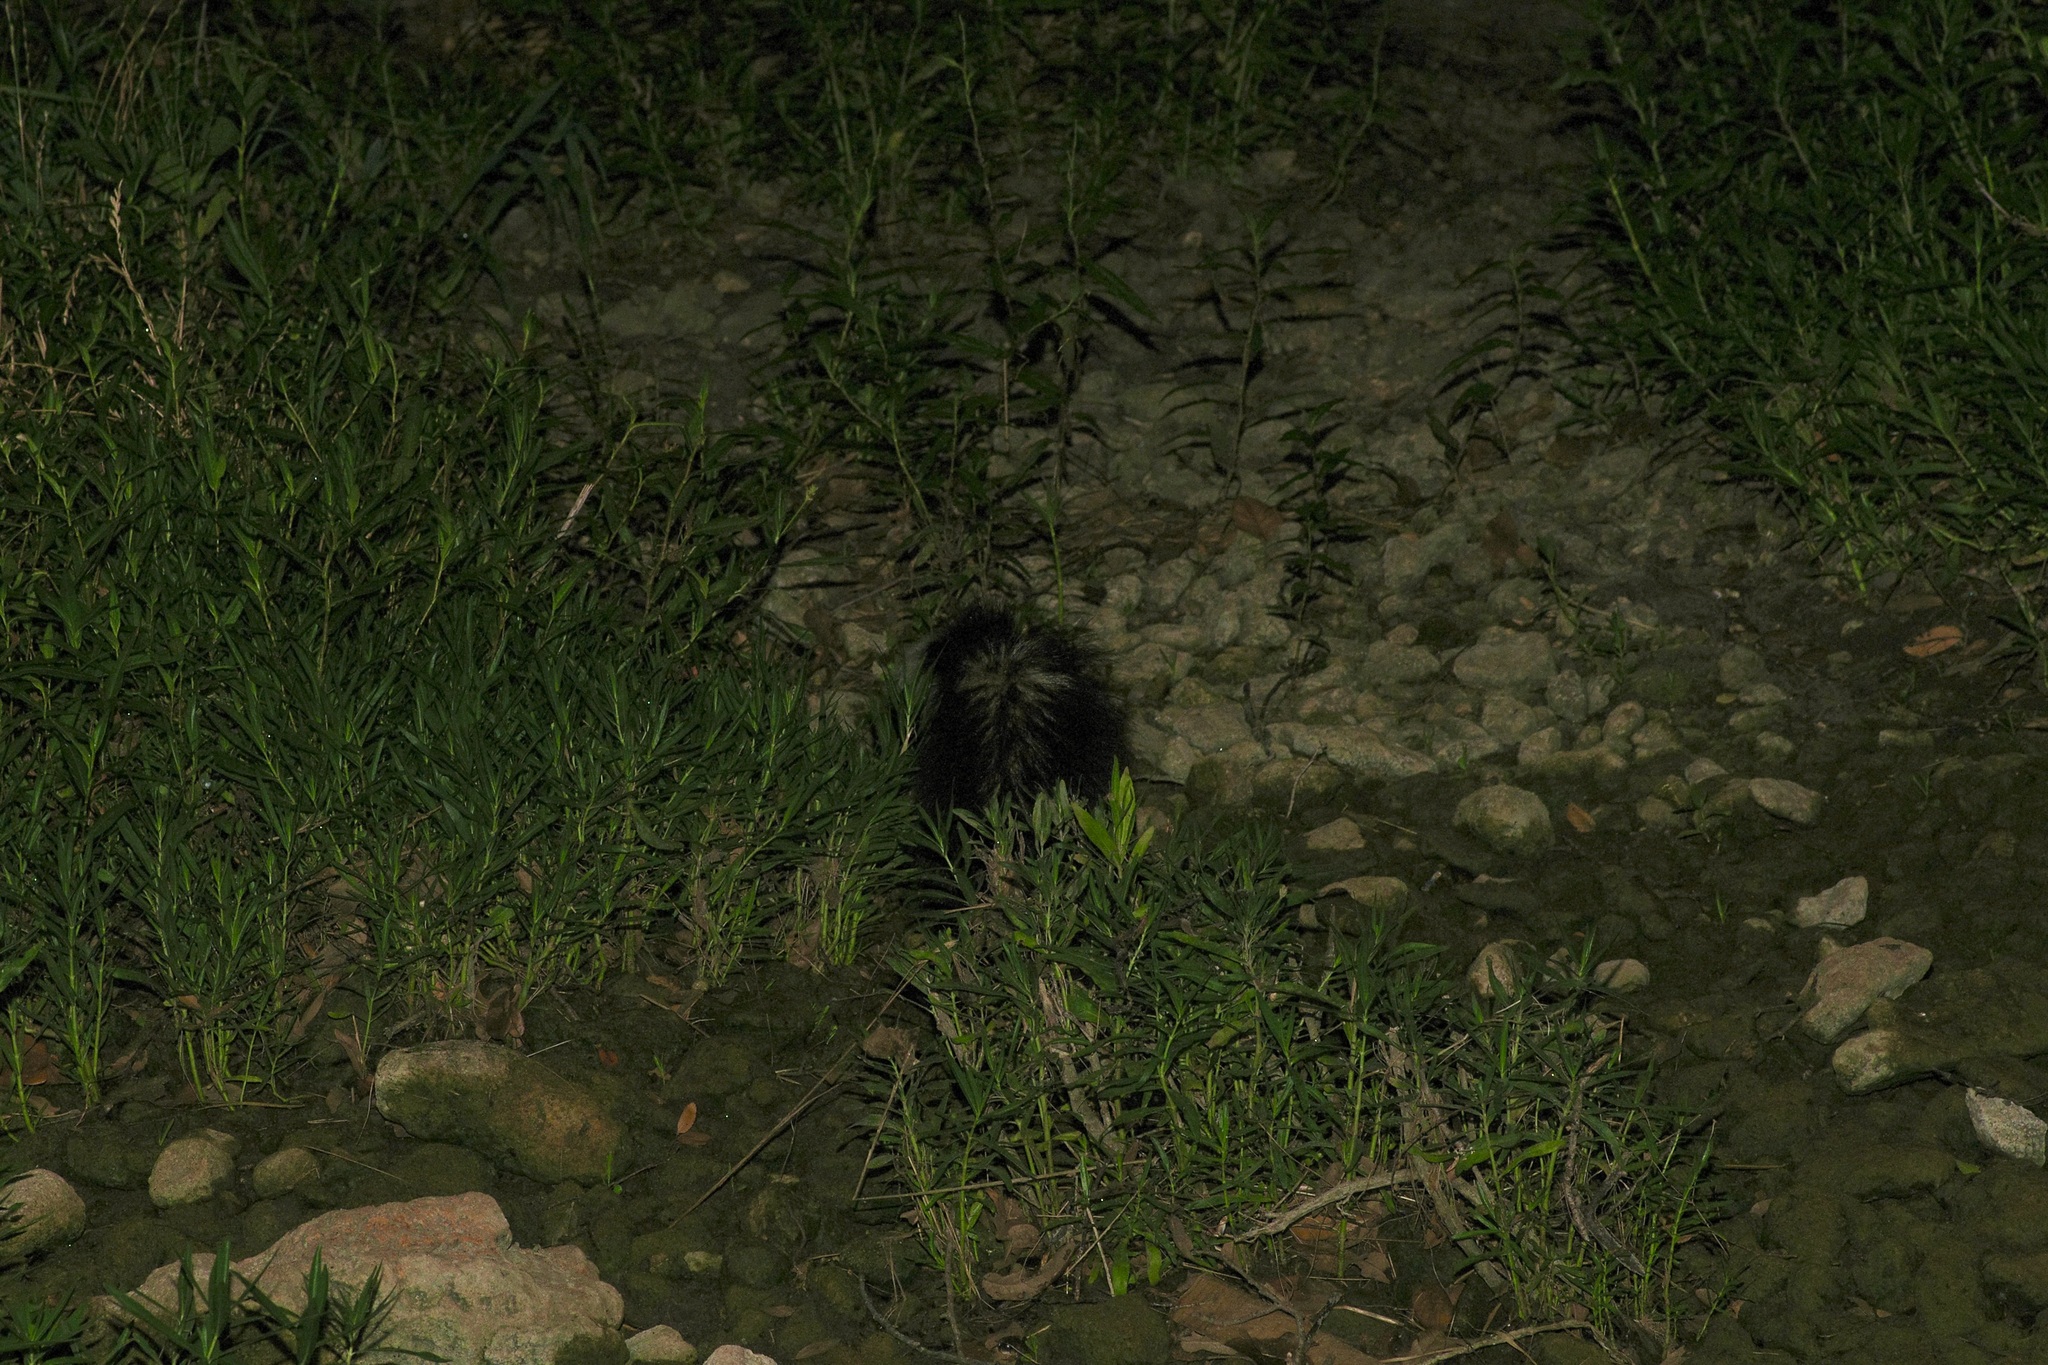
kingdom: Animalia
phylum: Chordata
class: Mammalia
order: Carnivora
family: Mephitidae
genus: Mephitis
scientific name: Mephitis mephitis
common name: Striped skunk
